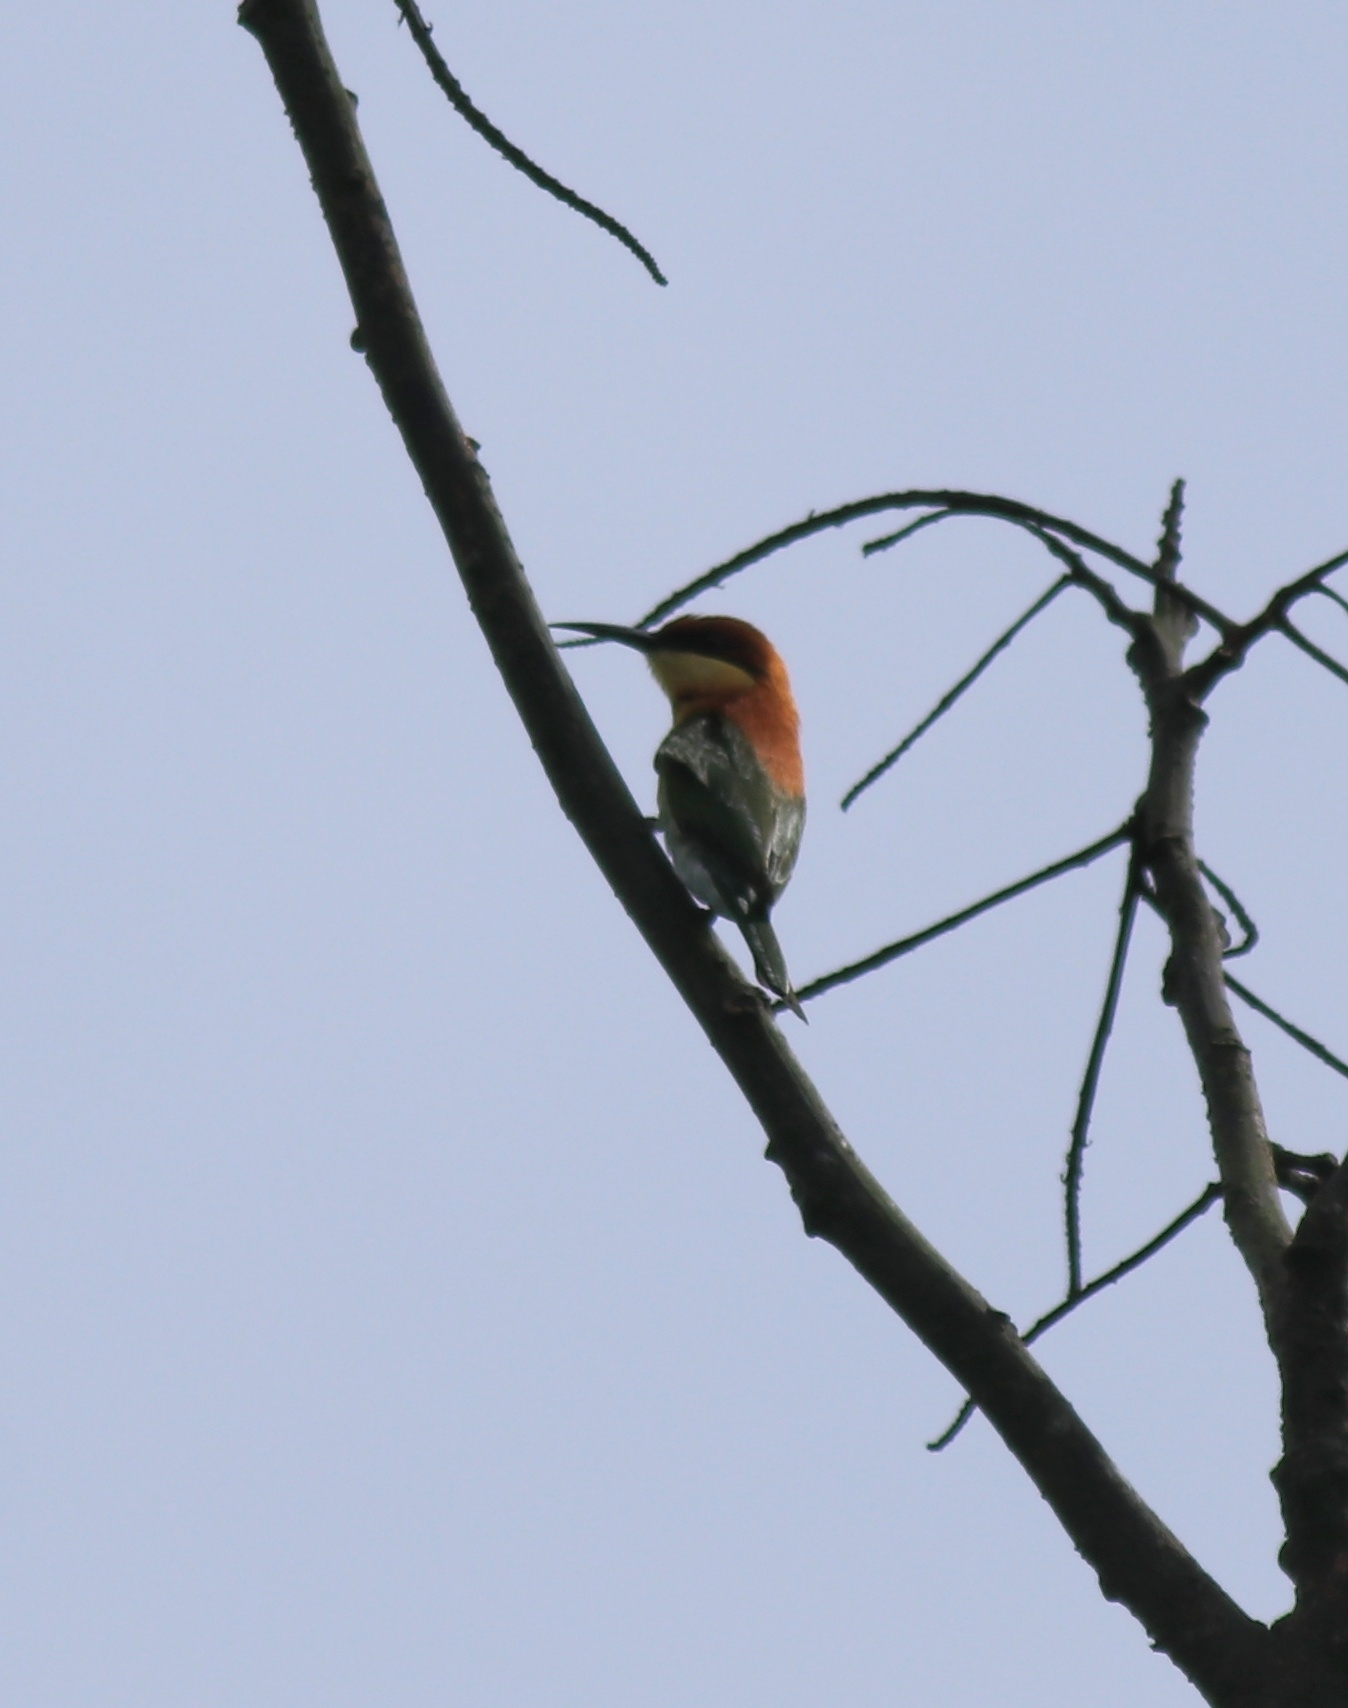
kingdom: Animalia
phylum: Chordata
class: Aves
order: Coraciiformes
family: Meropidae
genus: Merops
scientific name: Merops leschenaulti
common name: Chestnut-headed bee-eater
